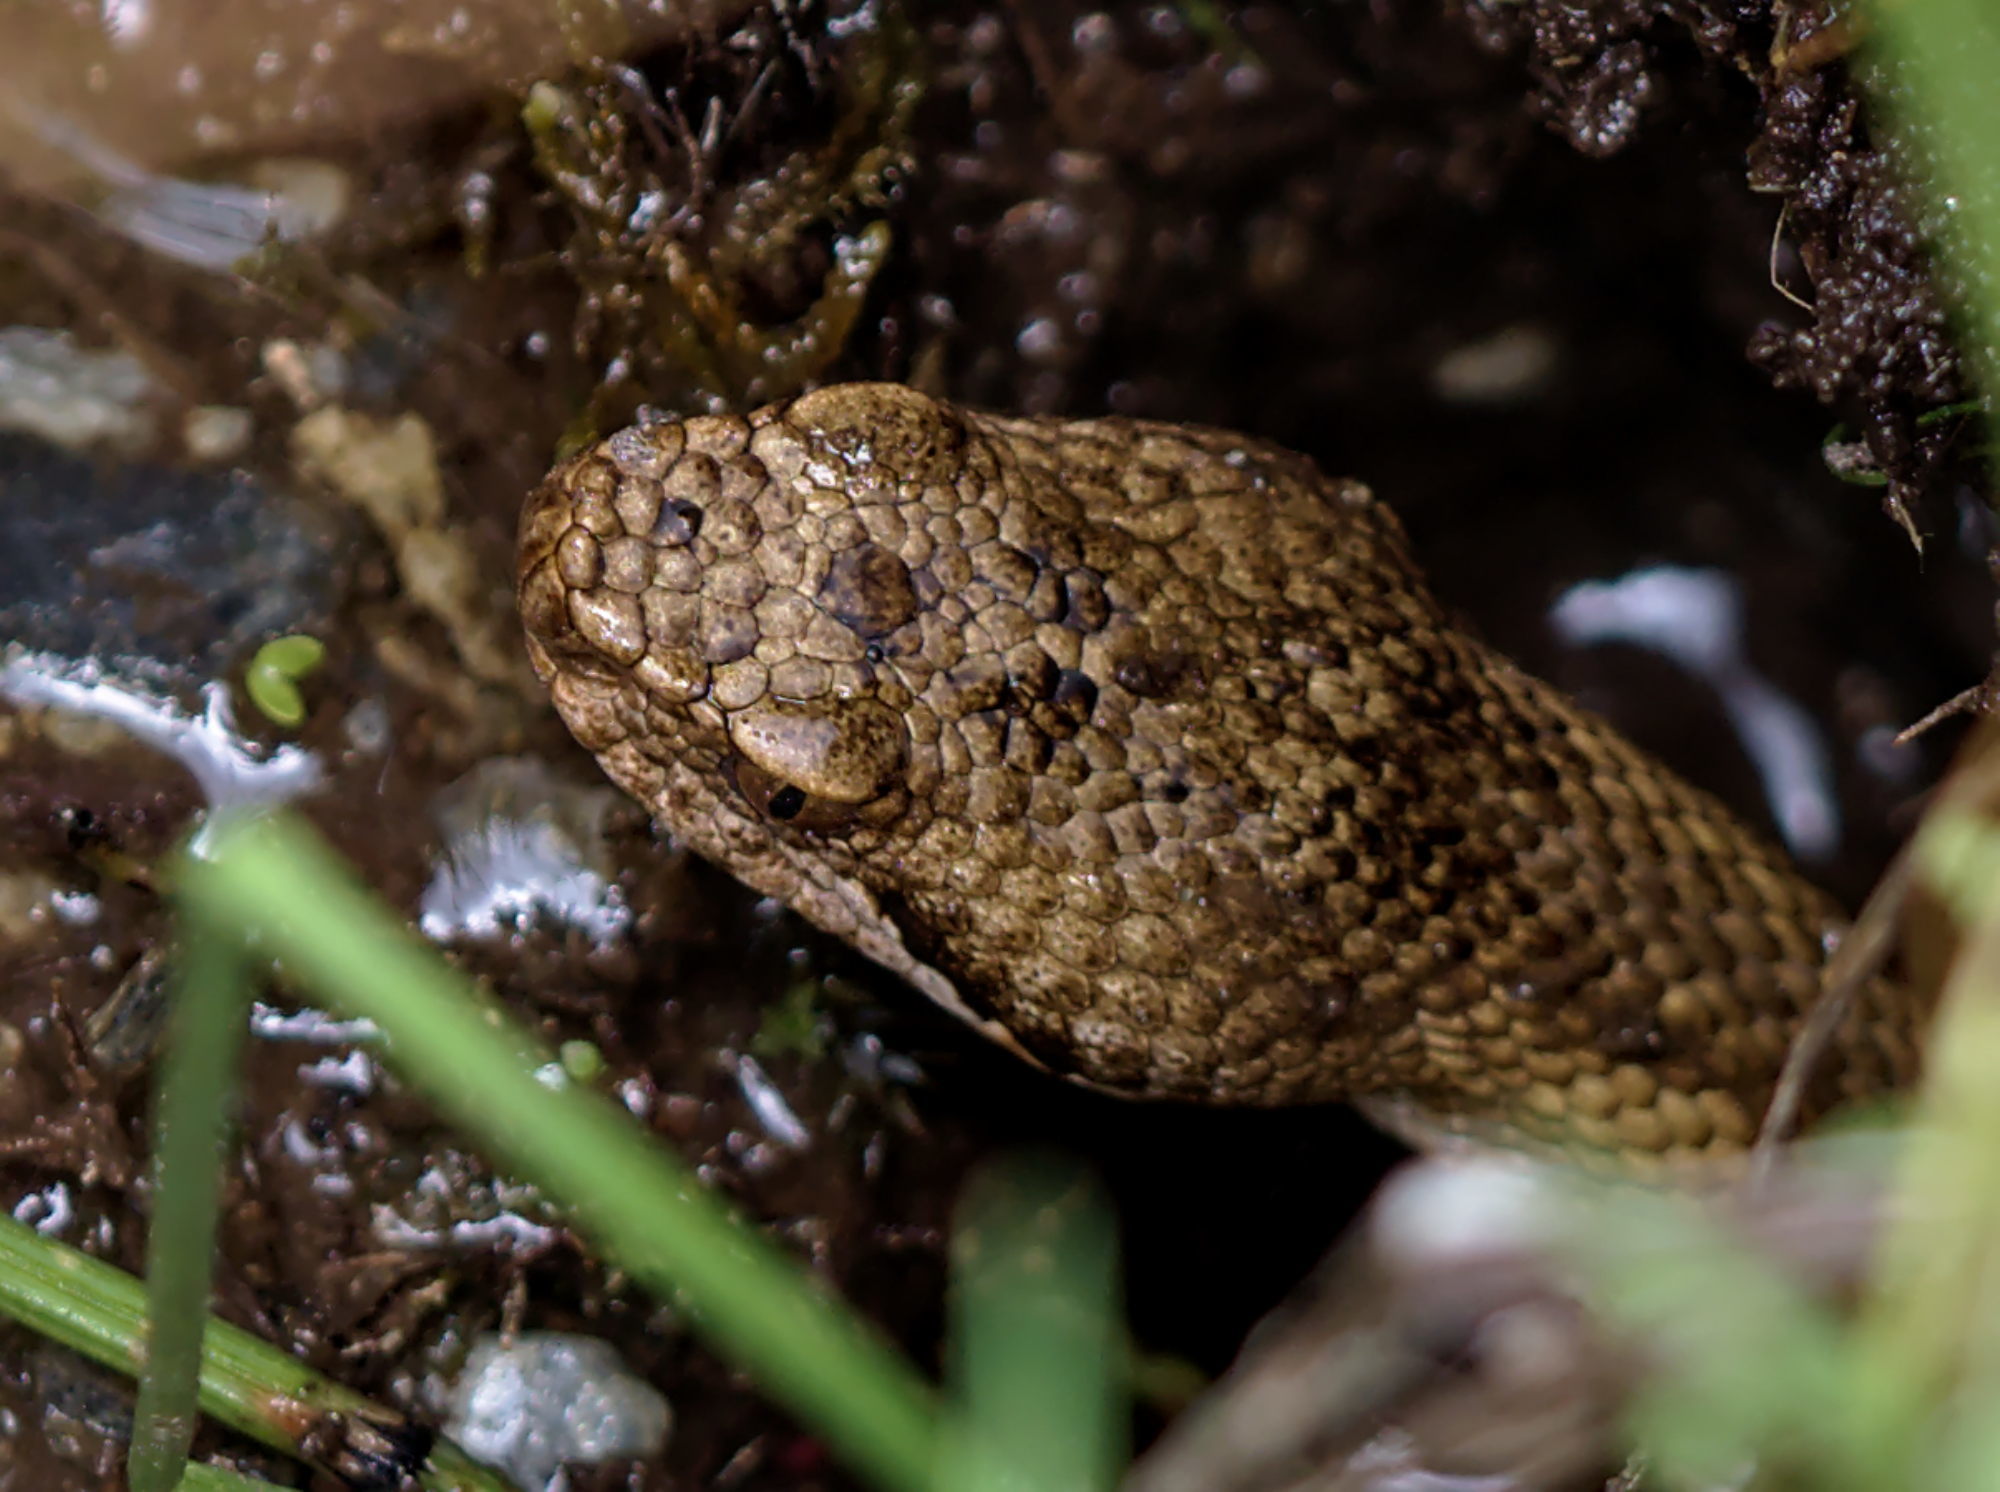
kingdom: Animalia
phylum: Chordata
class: Squamata
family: Viperidae
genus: Vipera
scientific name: Vipera aspis
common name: Asp viper
